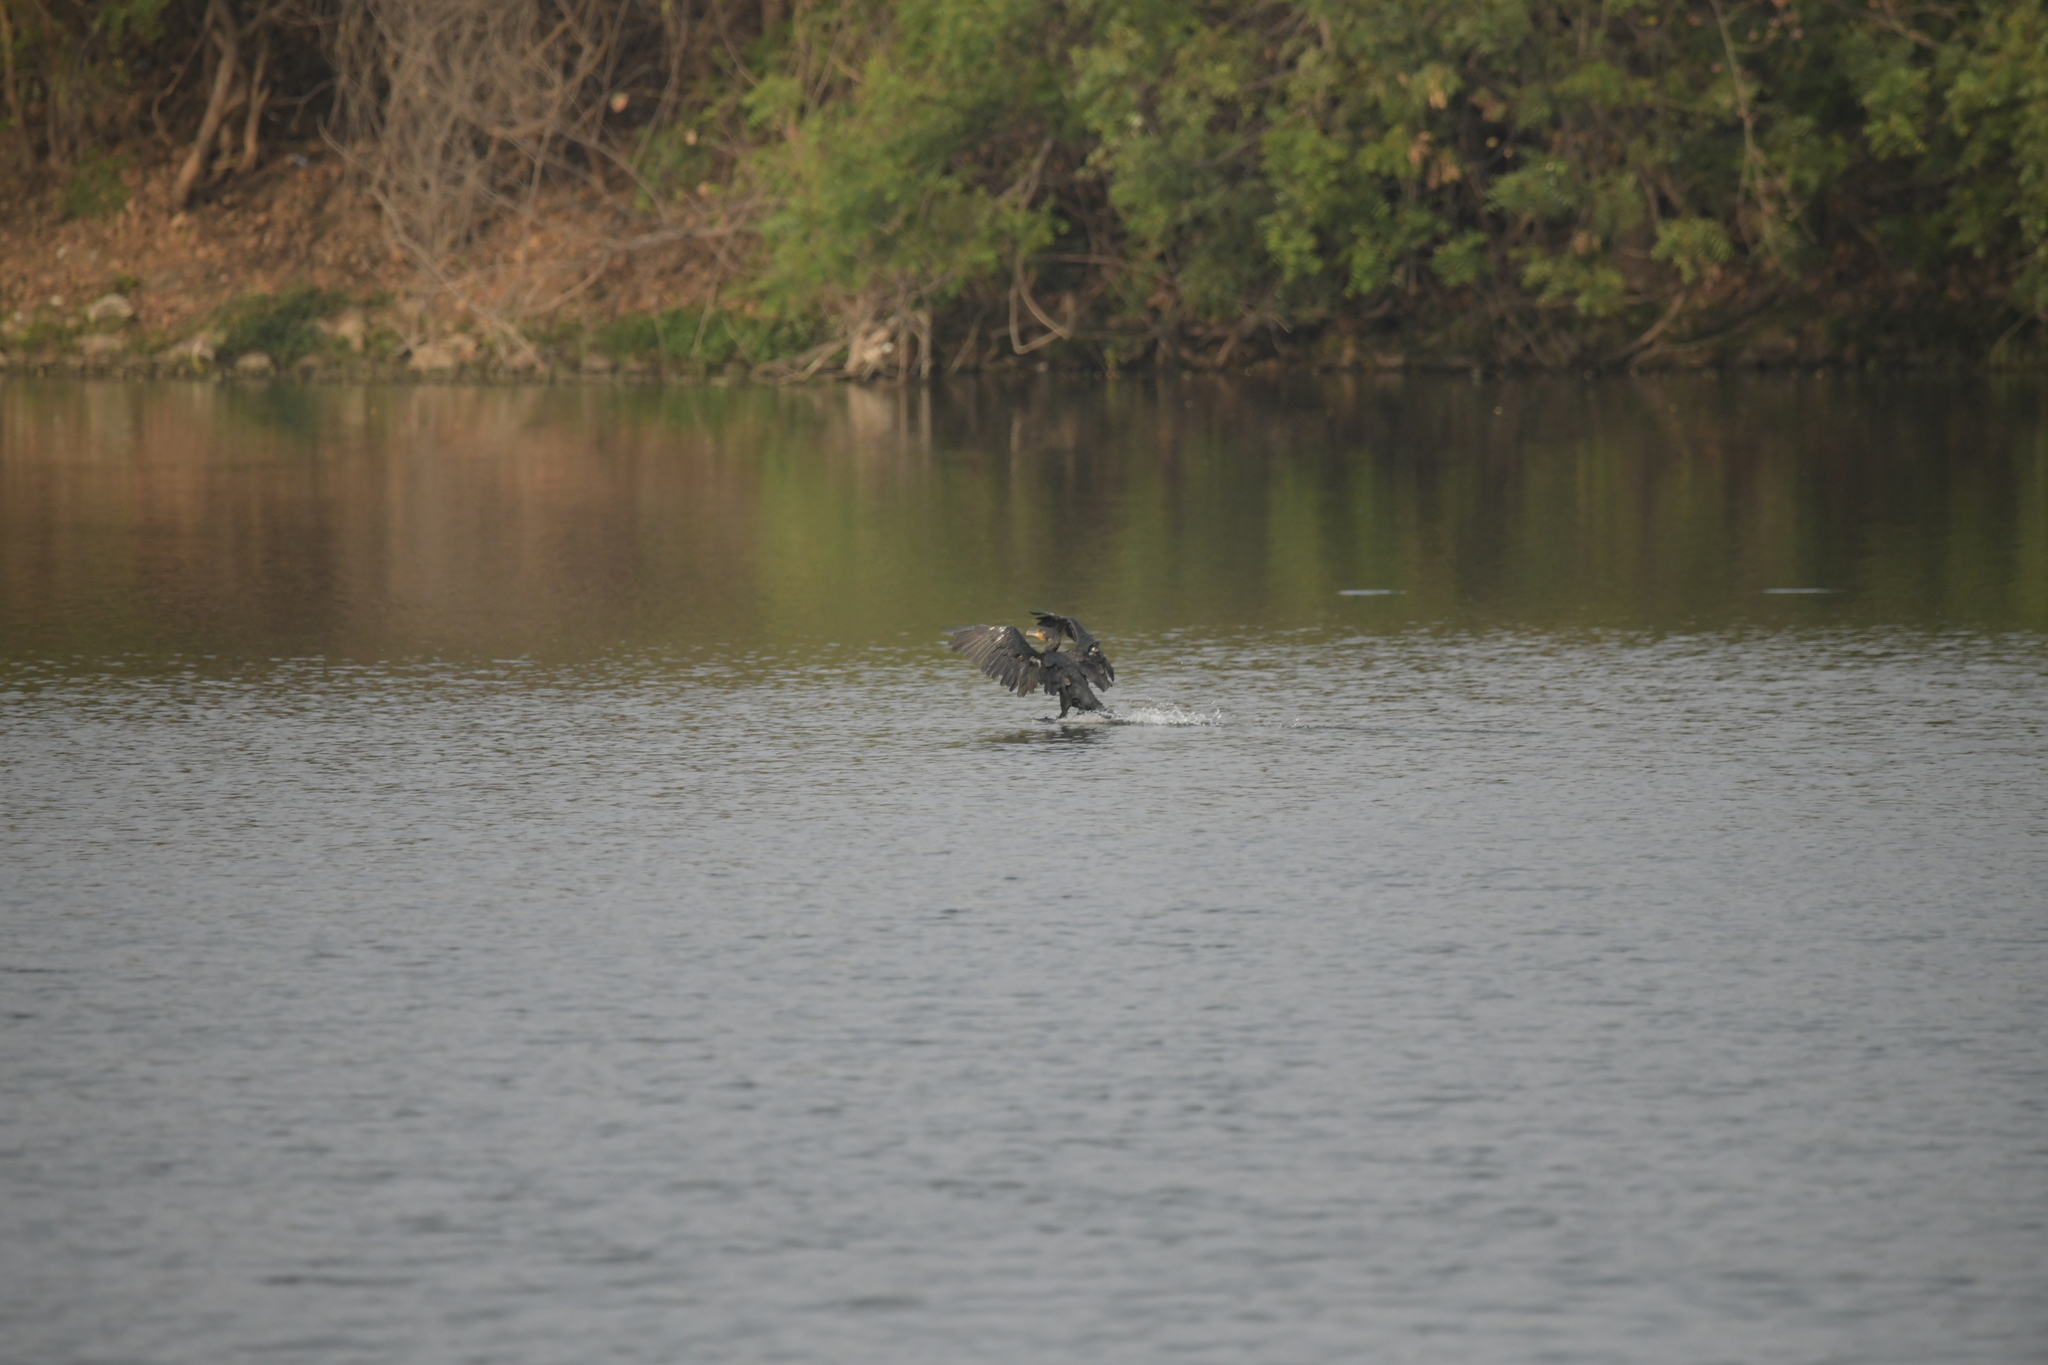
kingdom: Animalia
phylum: Chordata
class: Aves
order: Suliformes
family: Phalacrocoracidae
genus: Phalacrocorax
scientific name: Phalacrocorax carbo
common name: Great cormorant
